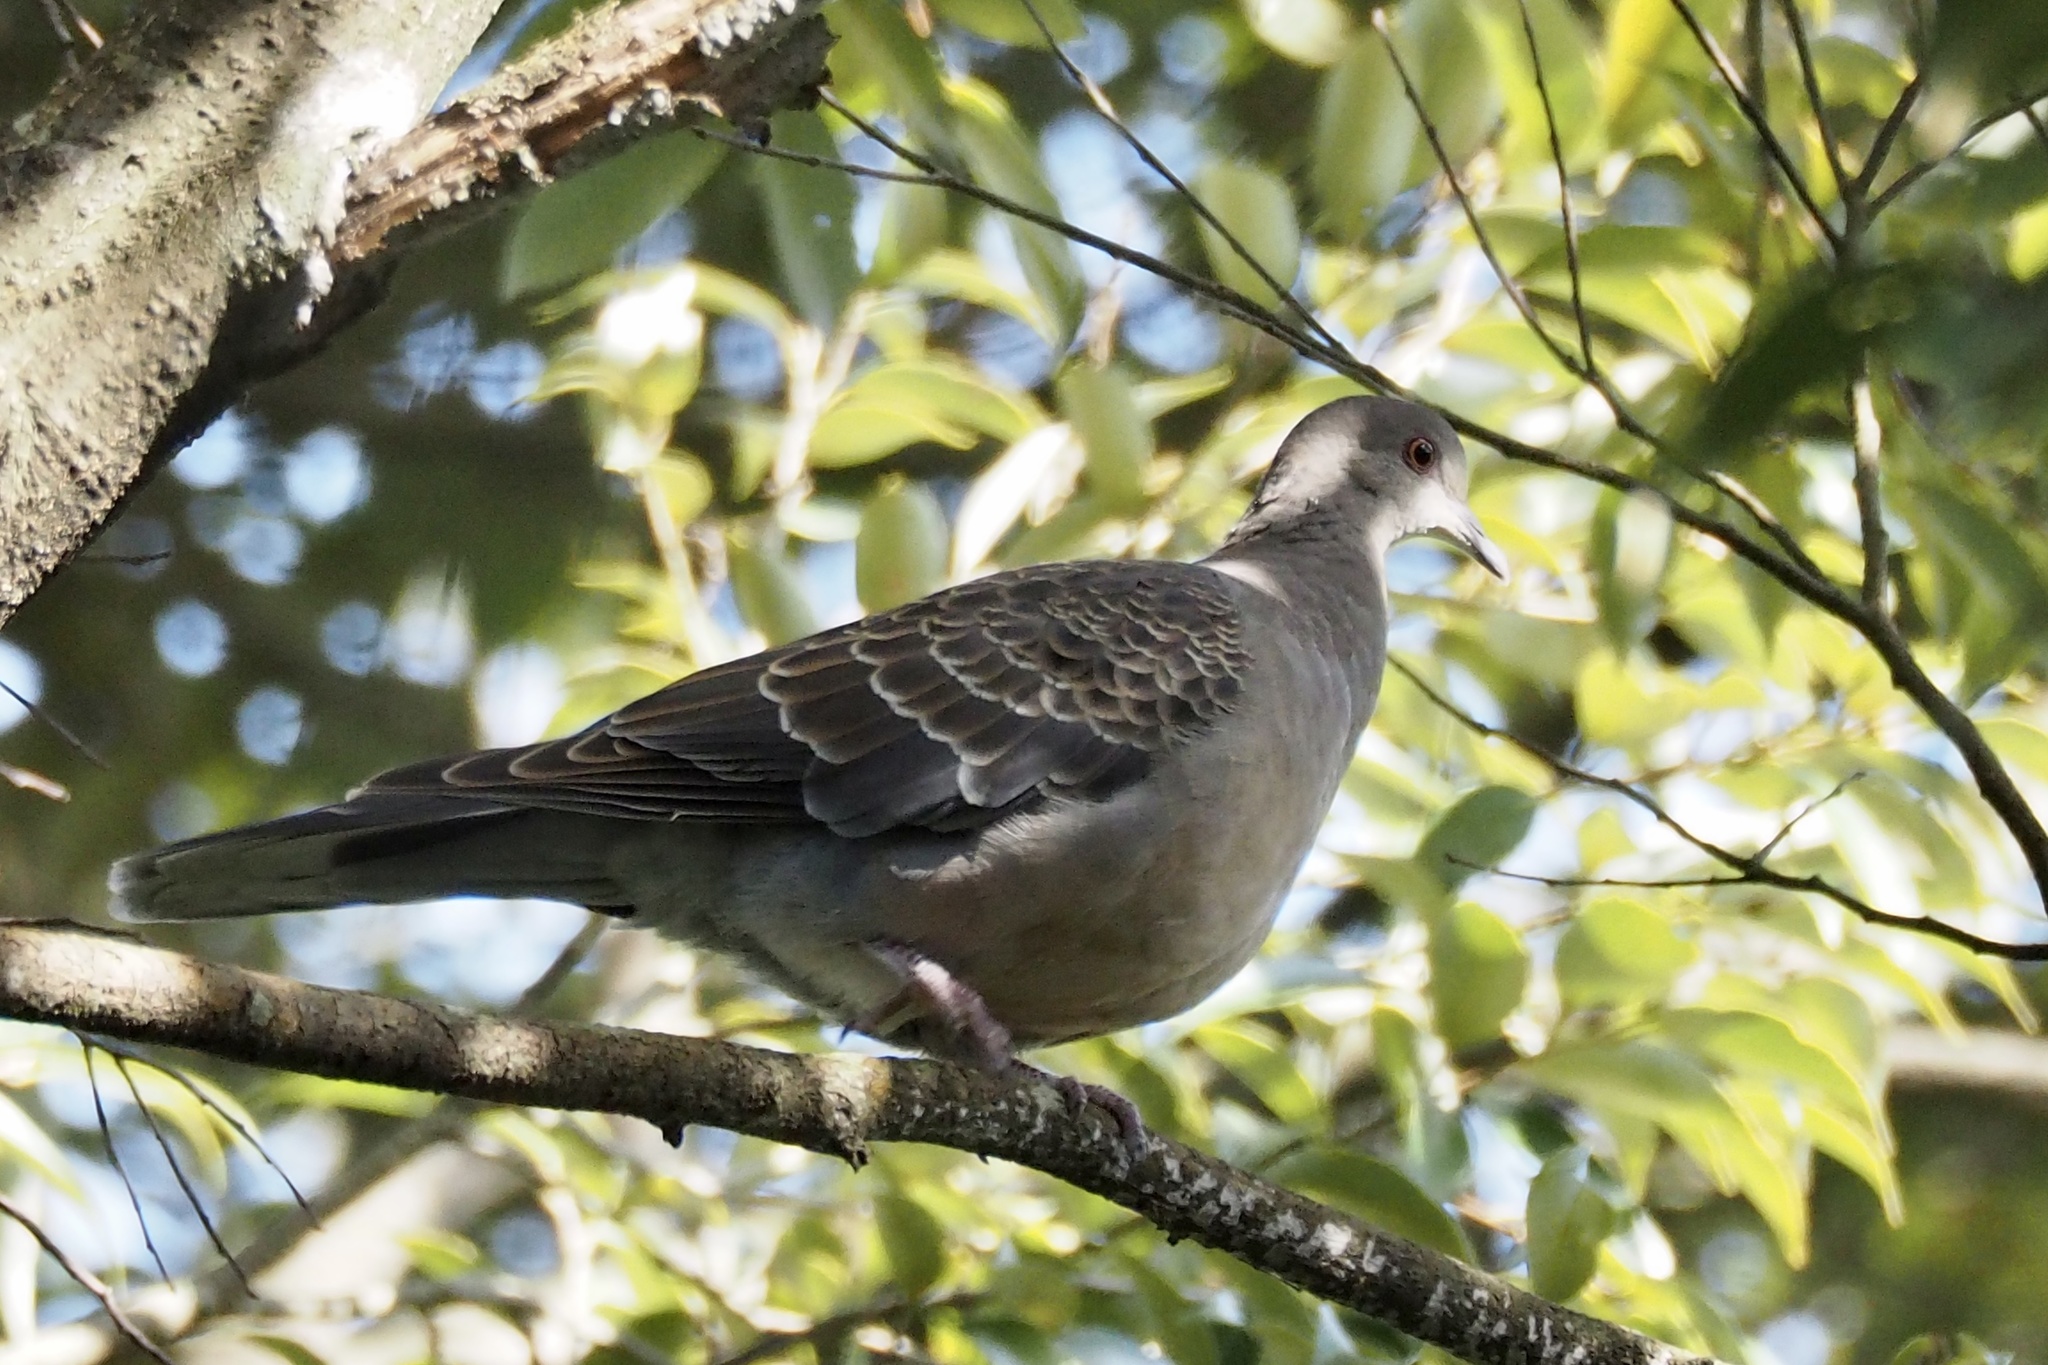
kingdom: Animalia
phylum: Chordata
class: Aves
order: Columbiformes
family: Columbidae
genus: Streptopelia
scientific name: Streptopelia orientalis
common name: Oriental turtle dove
